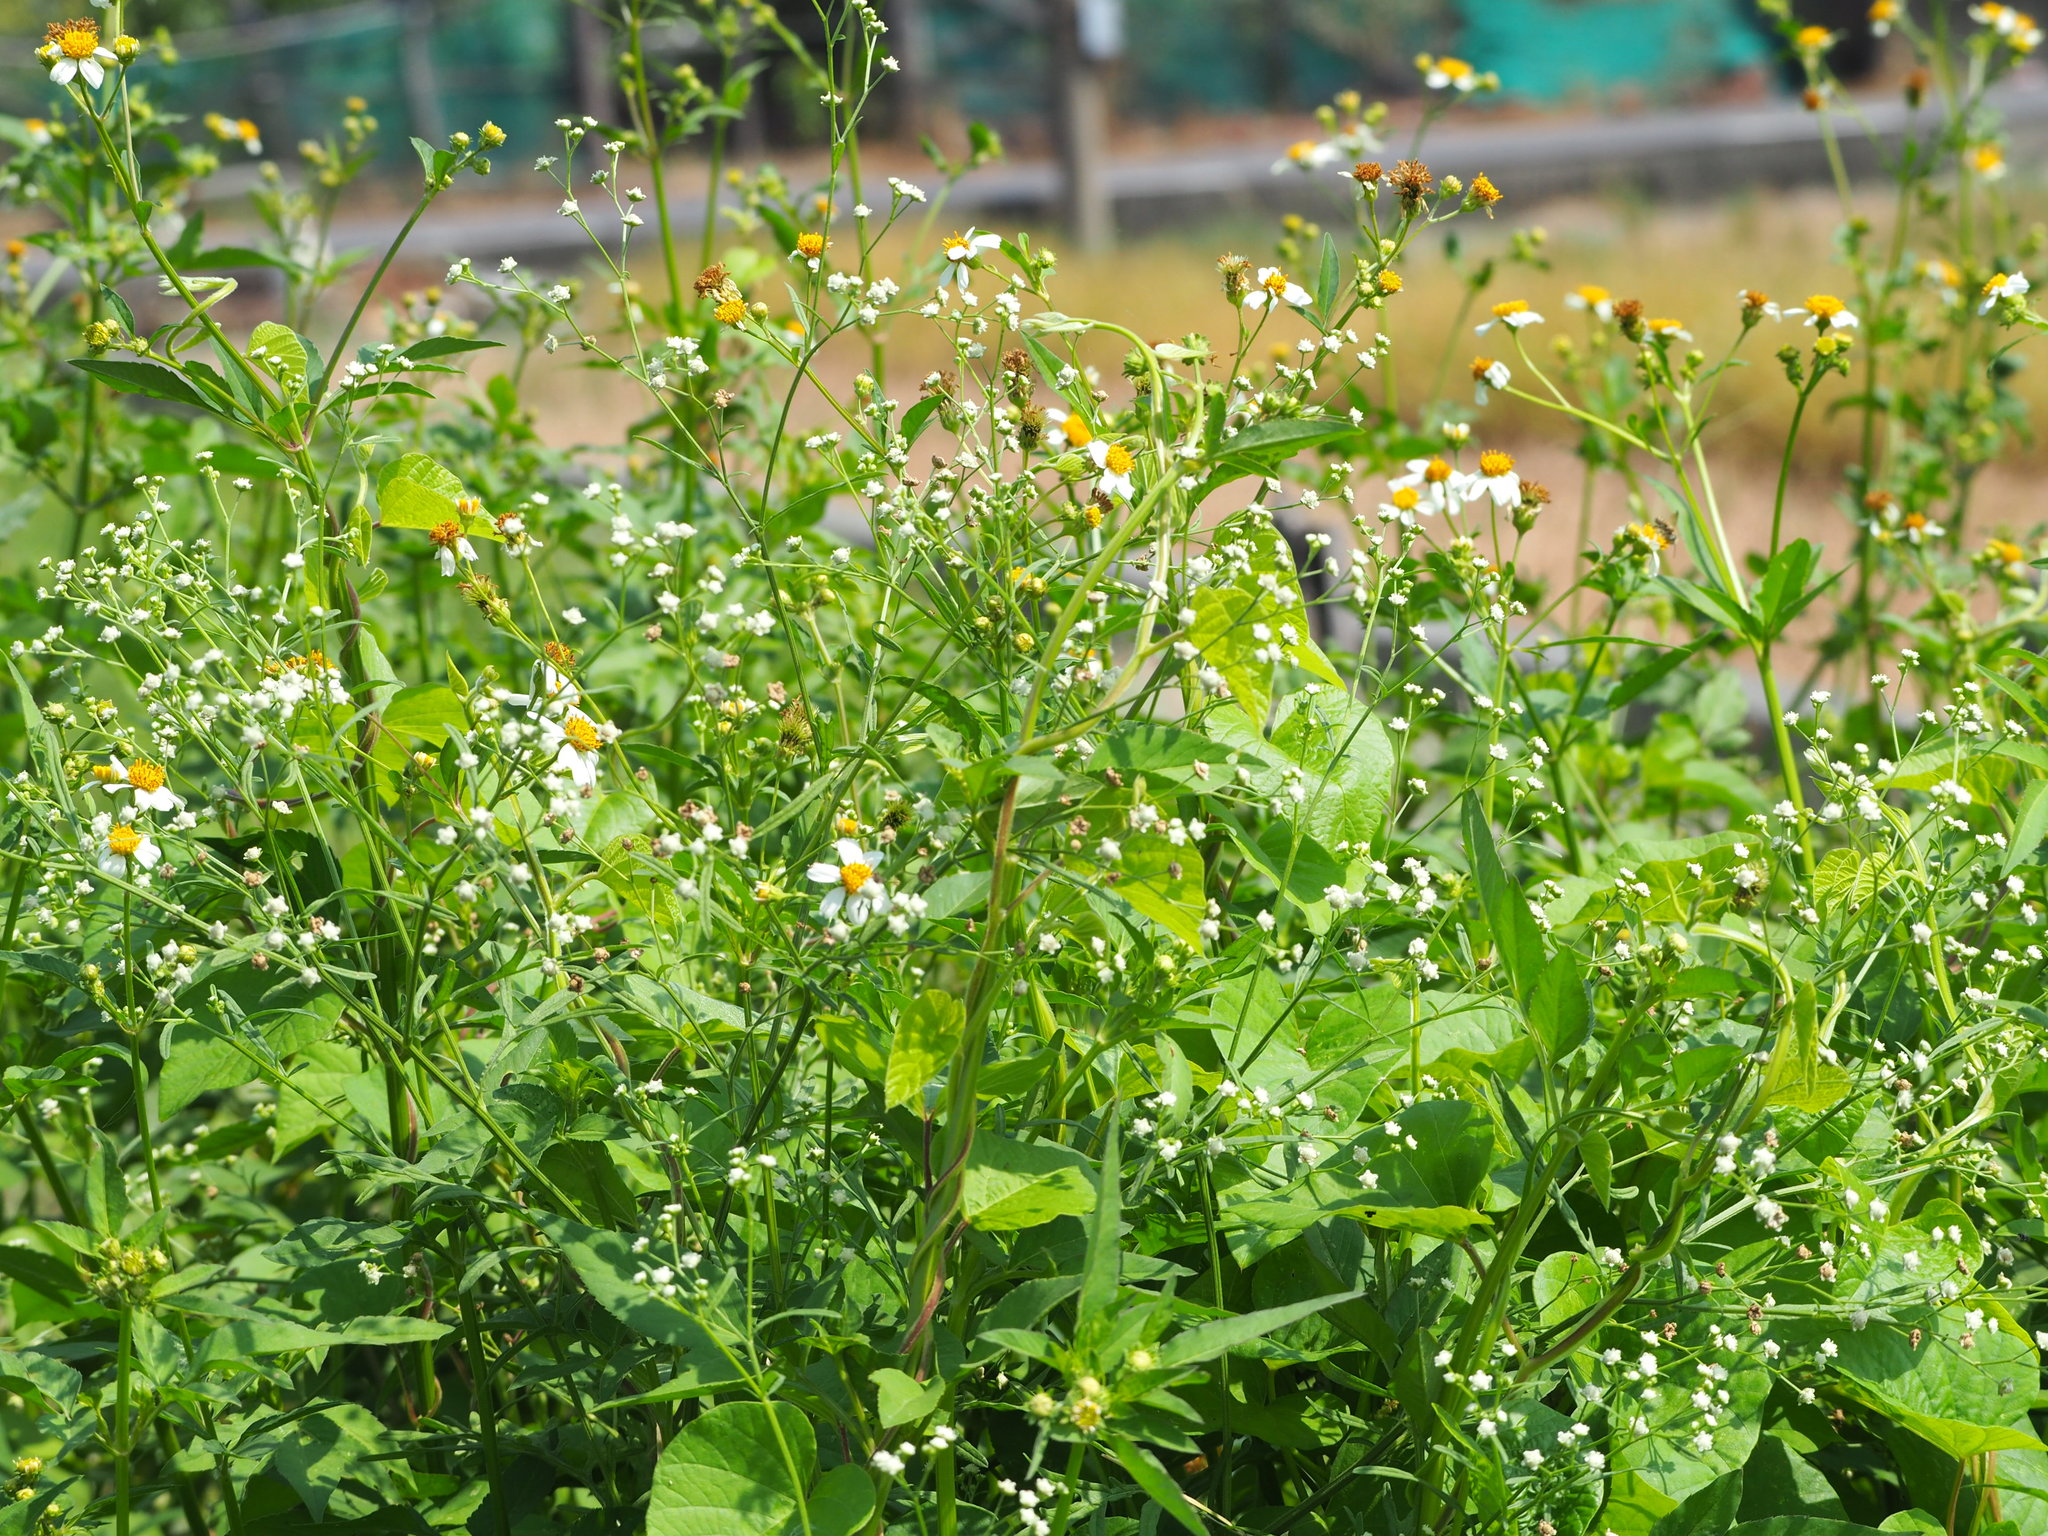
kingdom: Plantae
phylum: Tracheophyta
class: Magnoliopsida
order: Asterales
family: Asteraceae
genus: Parthenium
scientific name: Parthenium hysterophorus
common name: Santa maria feverfew
